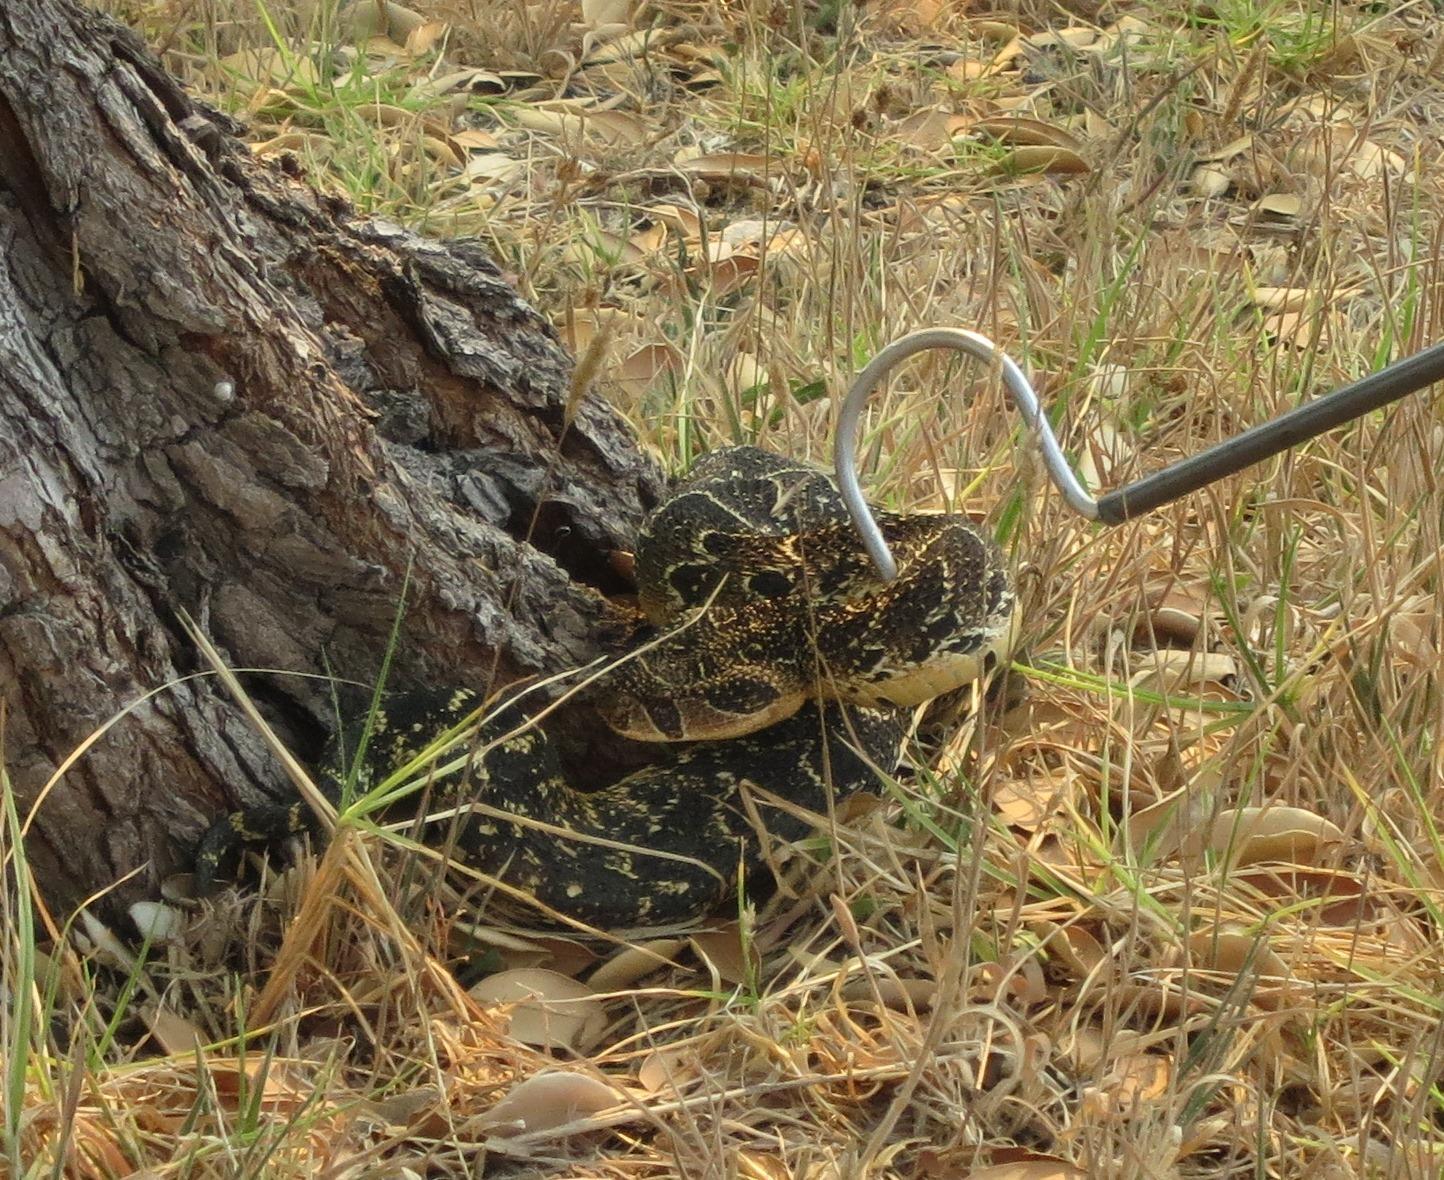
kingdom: Animalia
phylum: Chordata
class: Squamata
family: Viperidae
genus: Bitis
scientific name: Bitis arietans
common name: Puff adder
